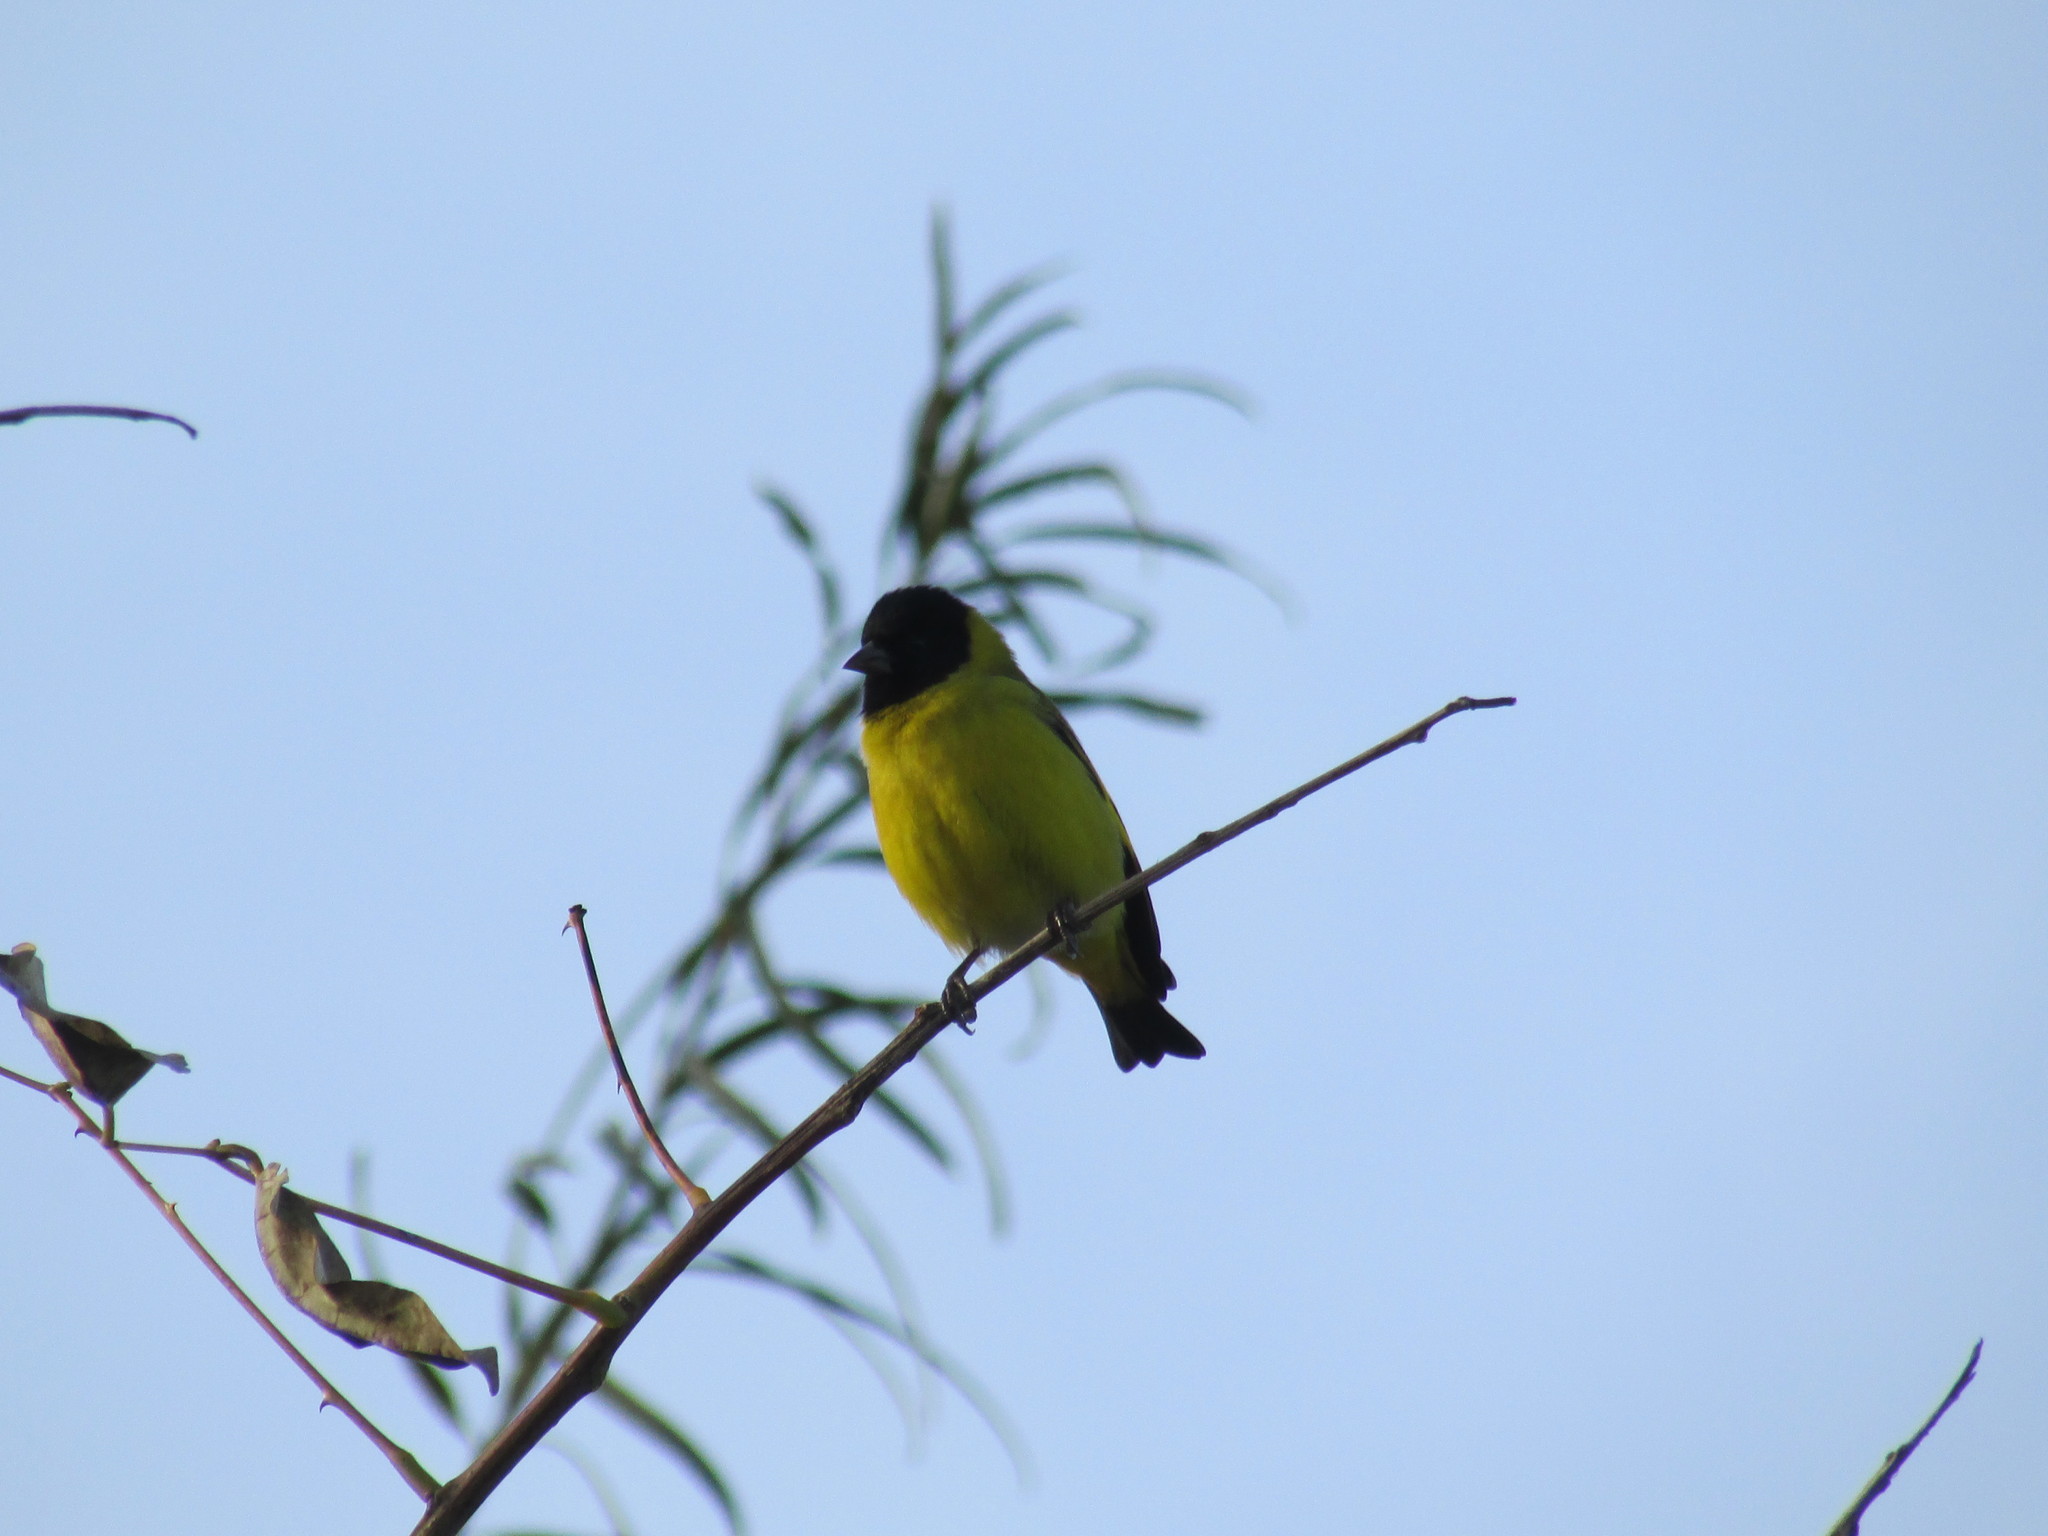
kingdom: Animalia
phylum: Chordata
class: Aves
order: Passeriformes
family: Fringillidae
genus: Spinus
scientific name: Spinus magellanicus
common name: Hooded siskin
